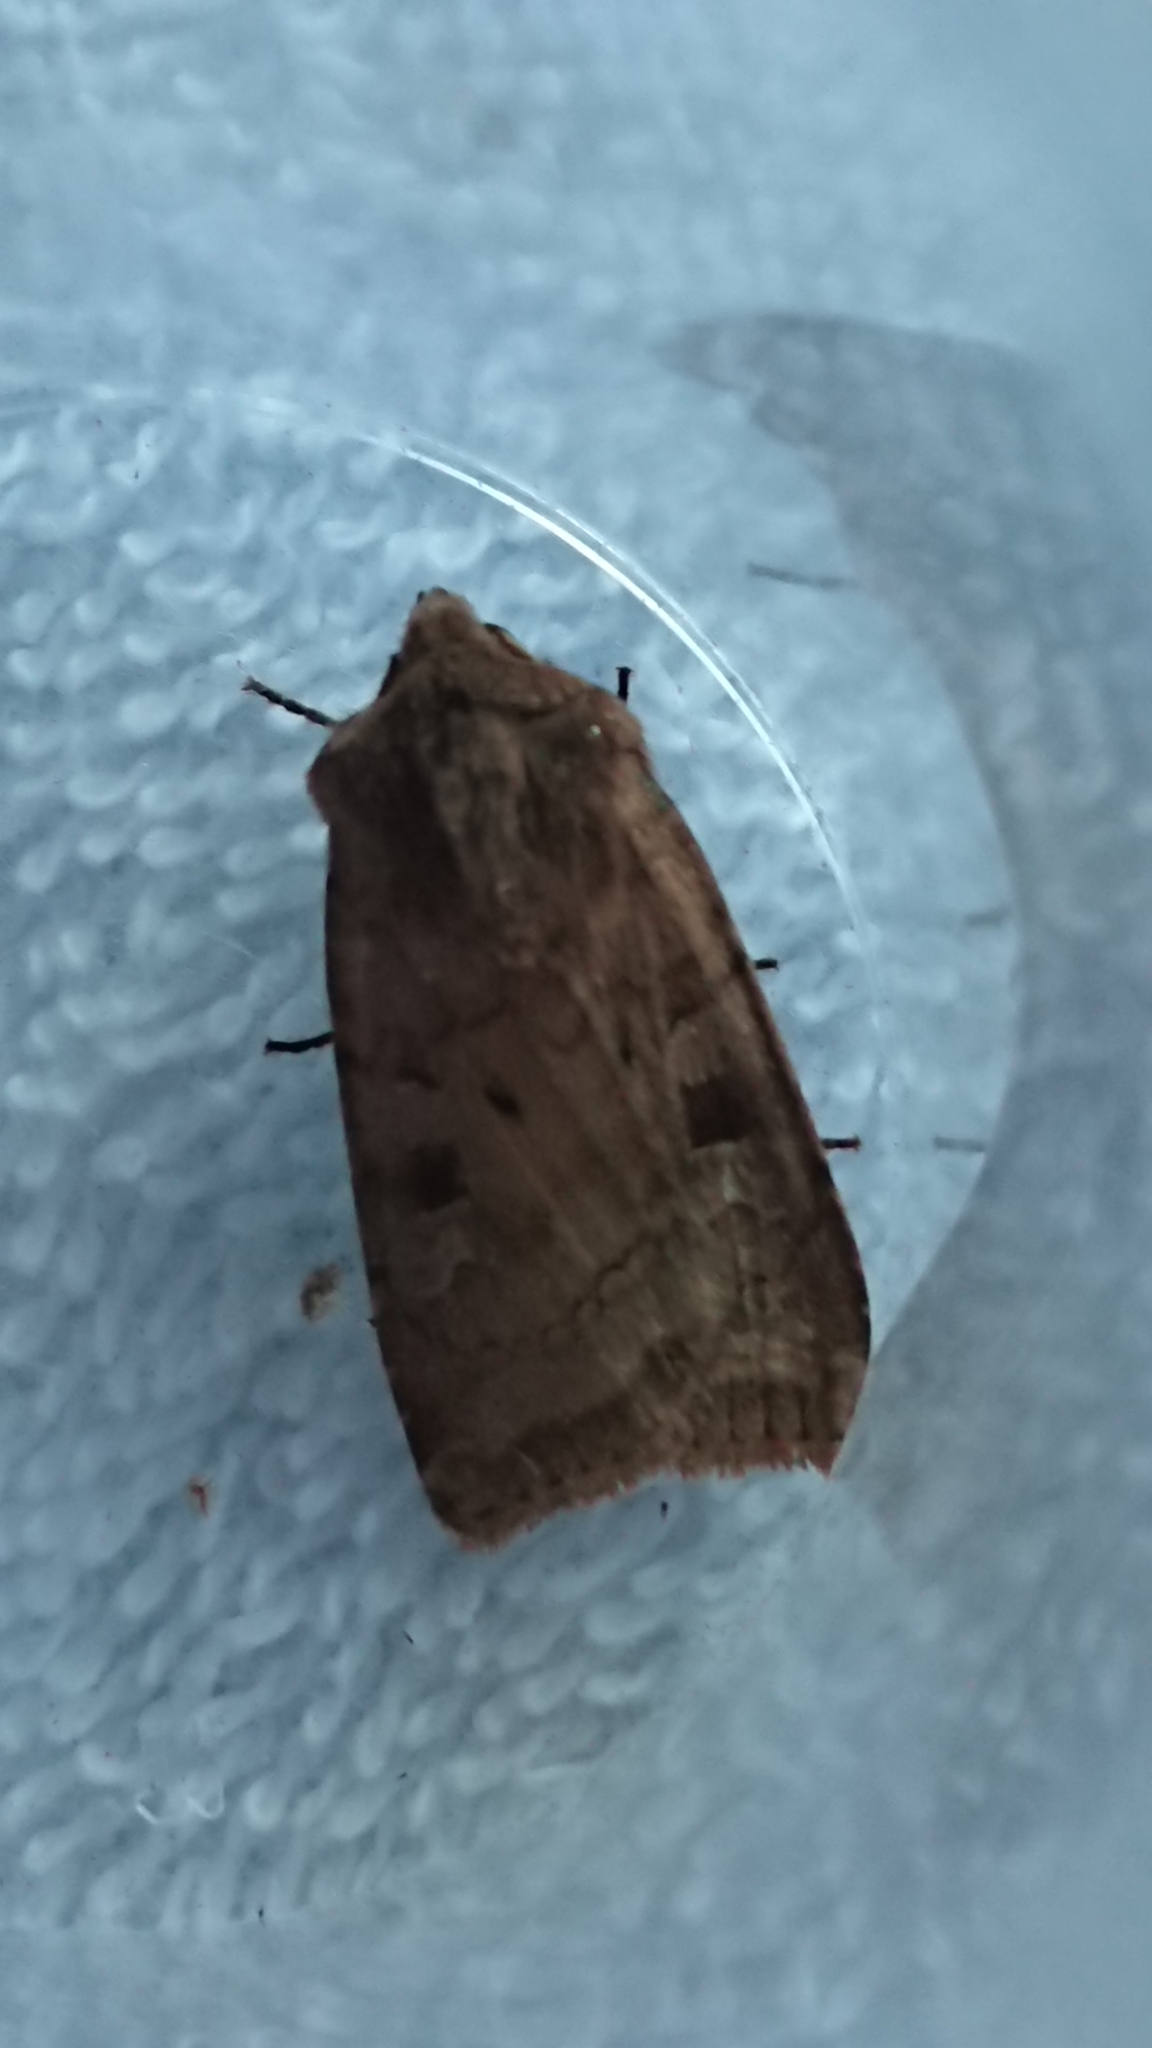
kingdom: Animalia
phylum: Arthropoda
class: Insecta
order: Lepidoptera
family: Noctuidae
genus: Diarsia
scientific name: Diarsia rubi
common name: Small square-spot
